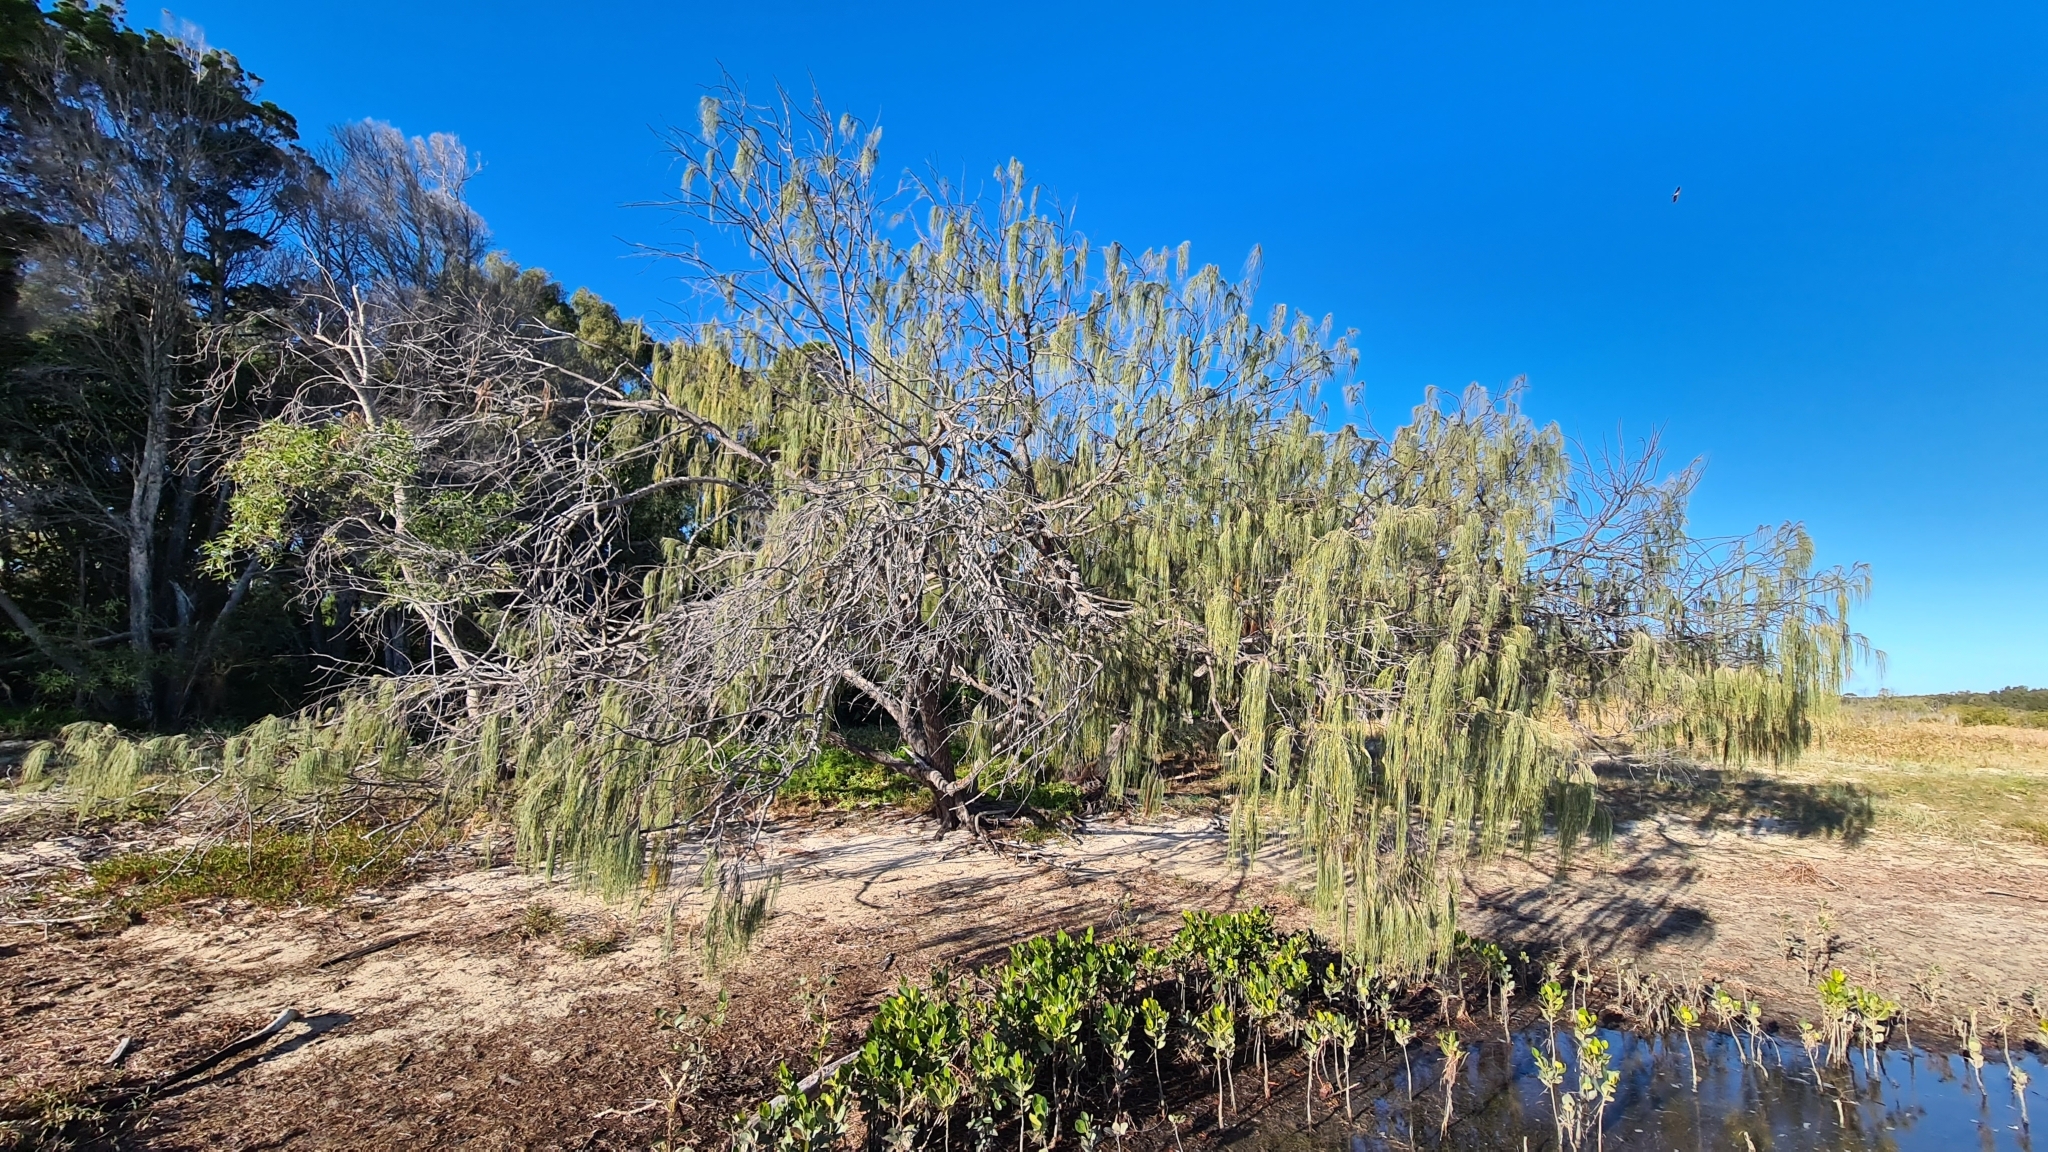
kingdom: Plantae
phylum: Tracheophyta
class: Magnoliopsida
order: Fagales
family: Casuarinaceae
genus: Casuarina
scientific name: Casuarina equisetifolia
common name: Beach sheoak
